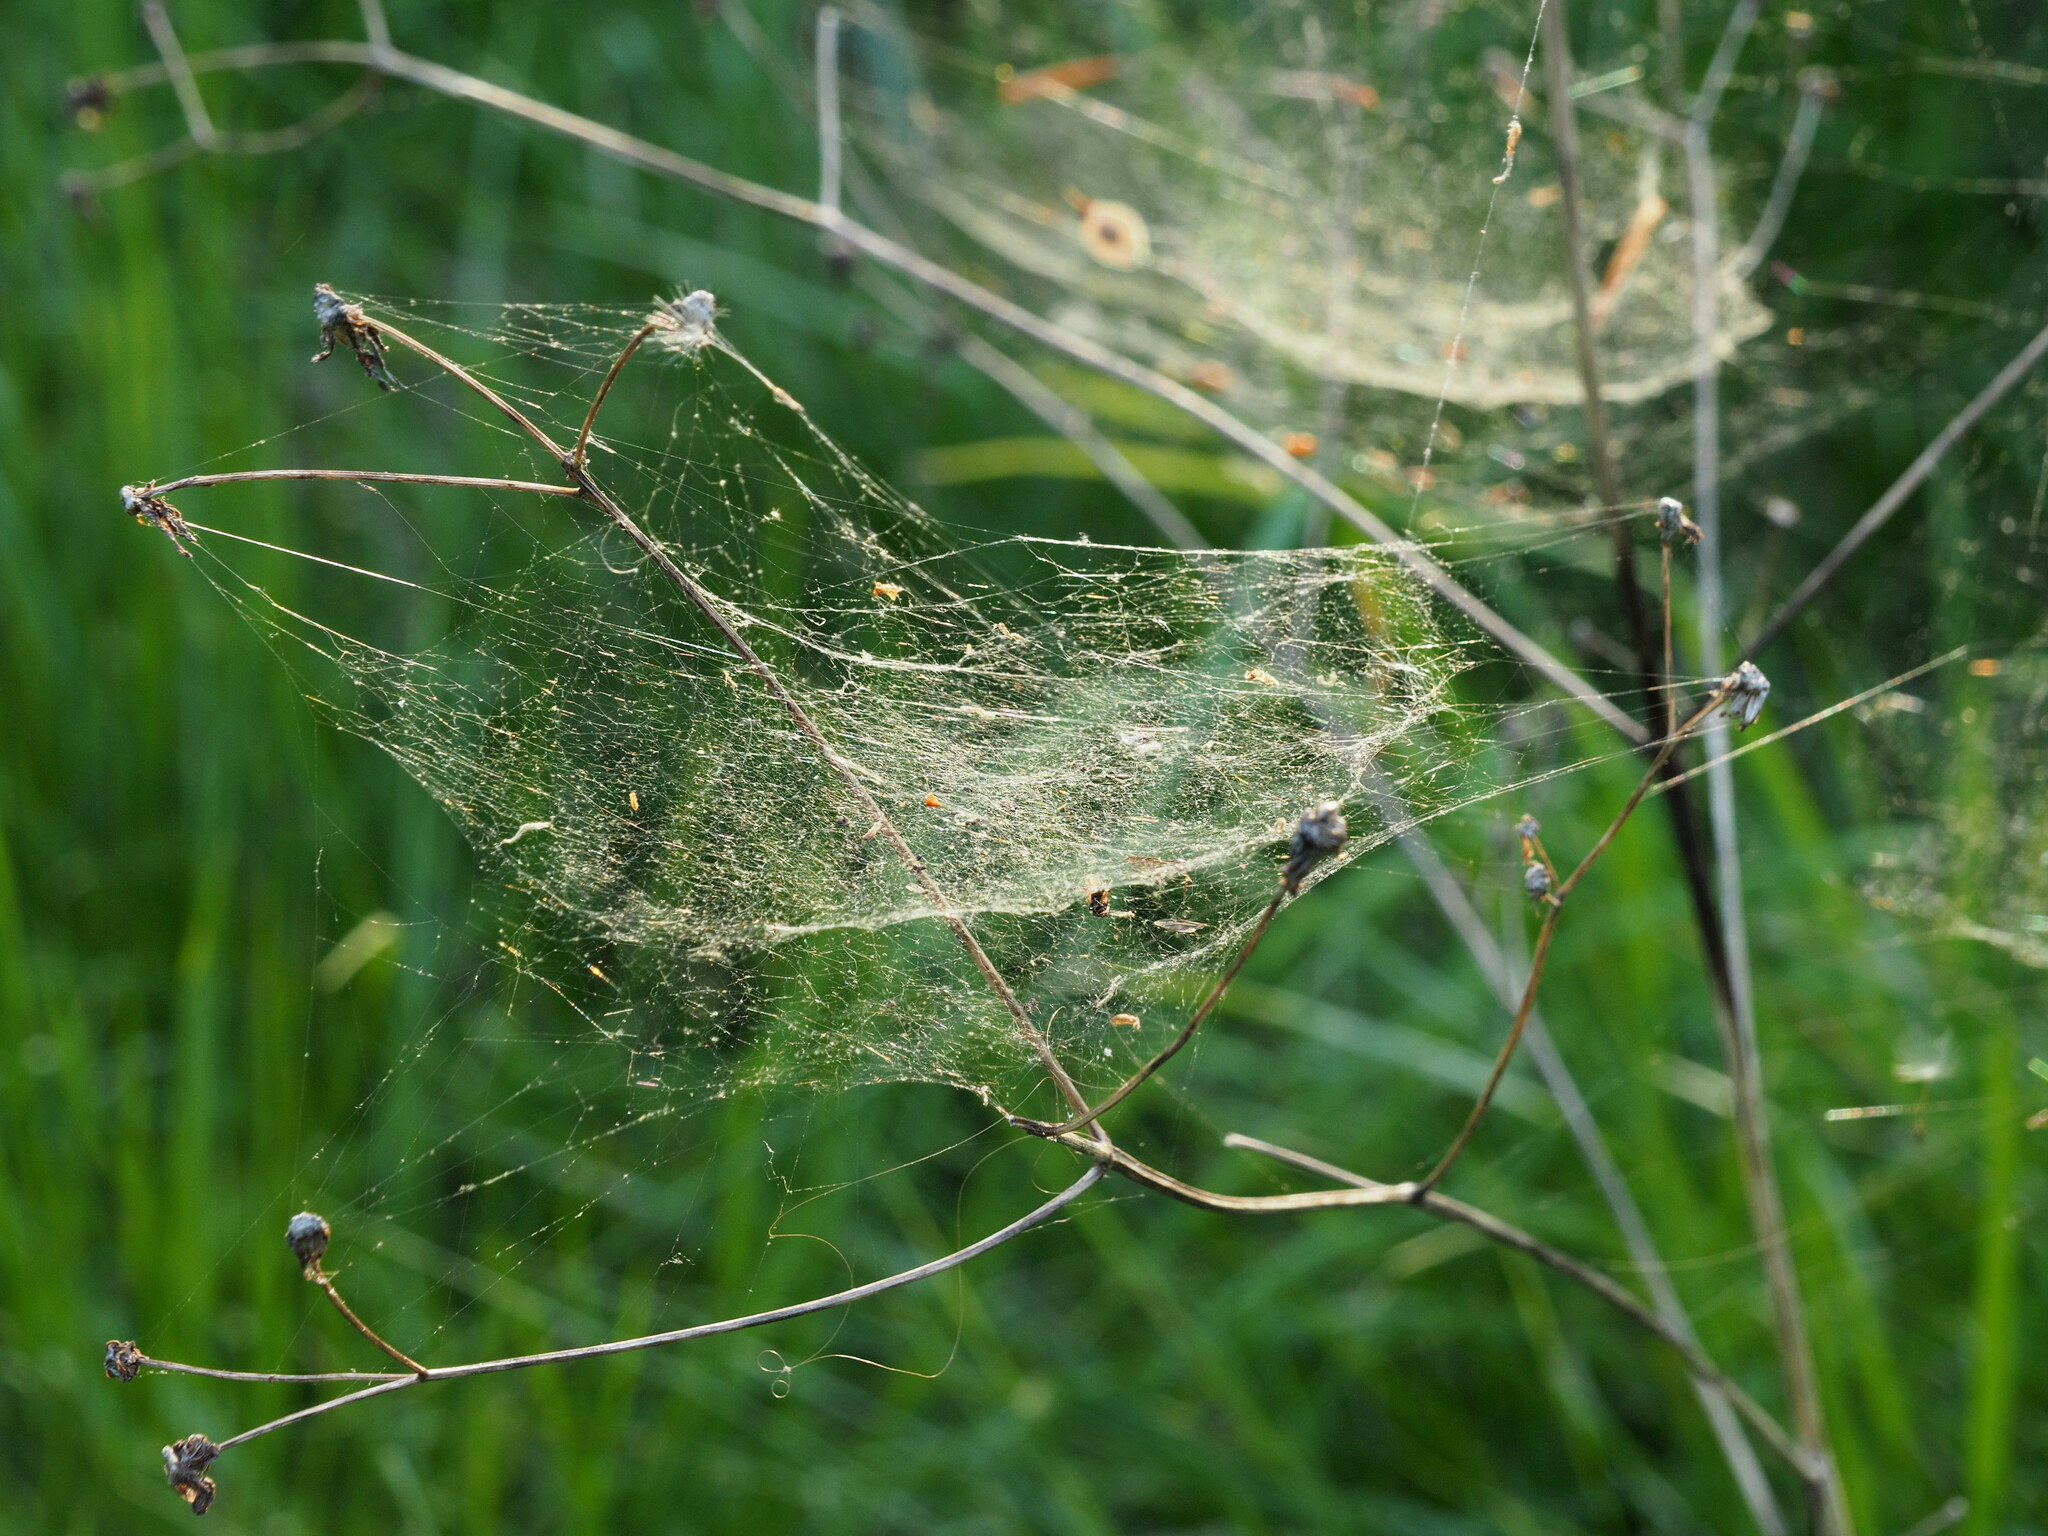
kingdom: Animalia
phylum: Arthropoda
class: Arachnida
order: Araneae
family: Linyphiidae
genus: Frontinella
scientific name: Frontinella pyramitela
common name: Bowl-and-doily spider
